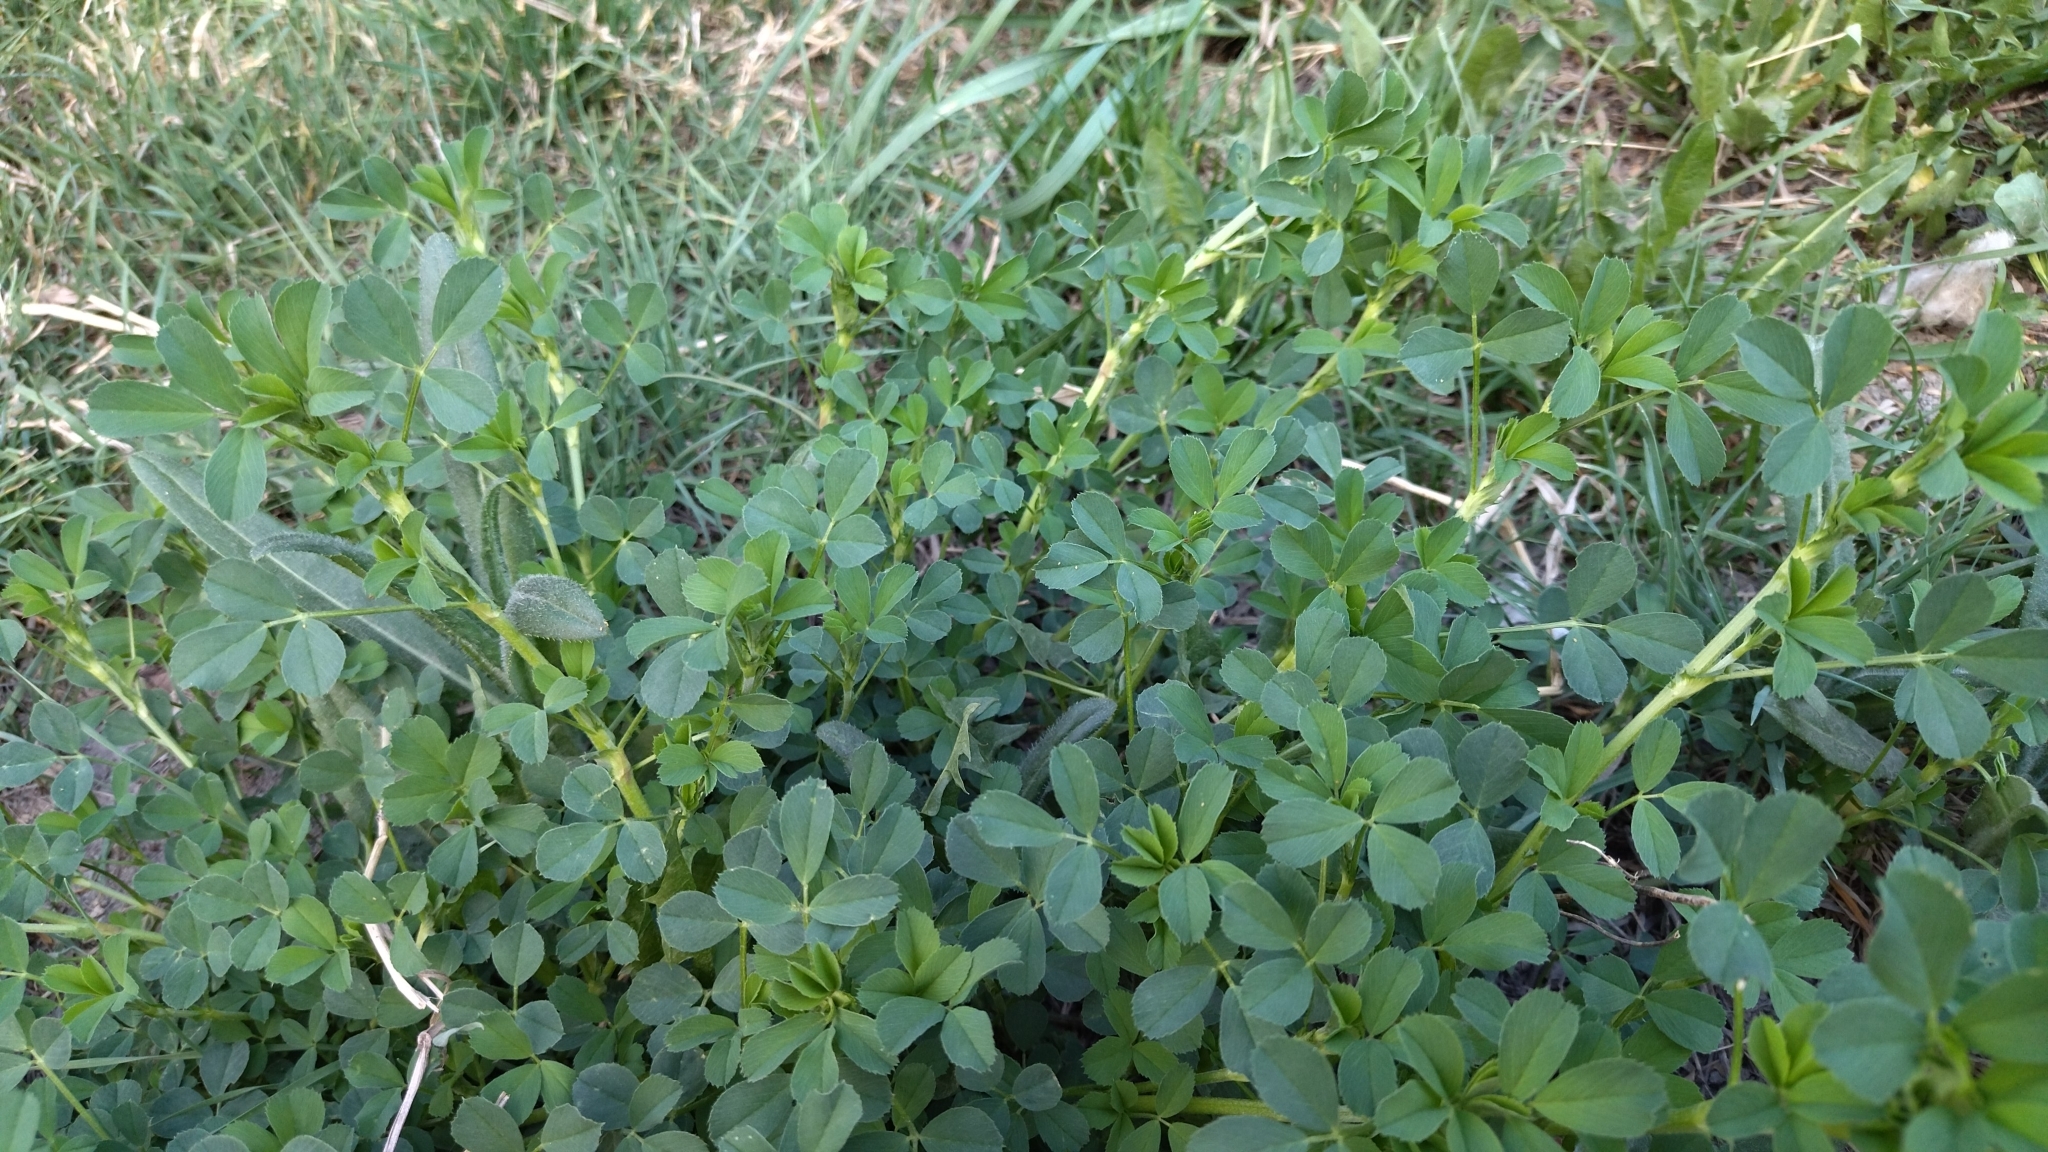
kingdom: Plantae
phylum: Tracheophyta
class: Magnoliopsida
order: Fabales
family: Fabaceae
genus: Medicago
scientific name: Medicago sativa
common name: Alfalfa
